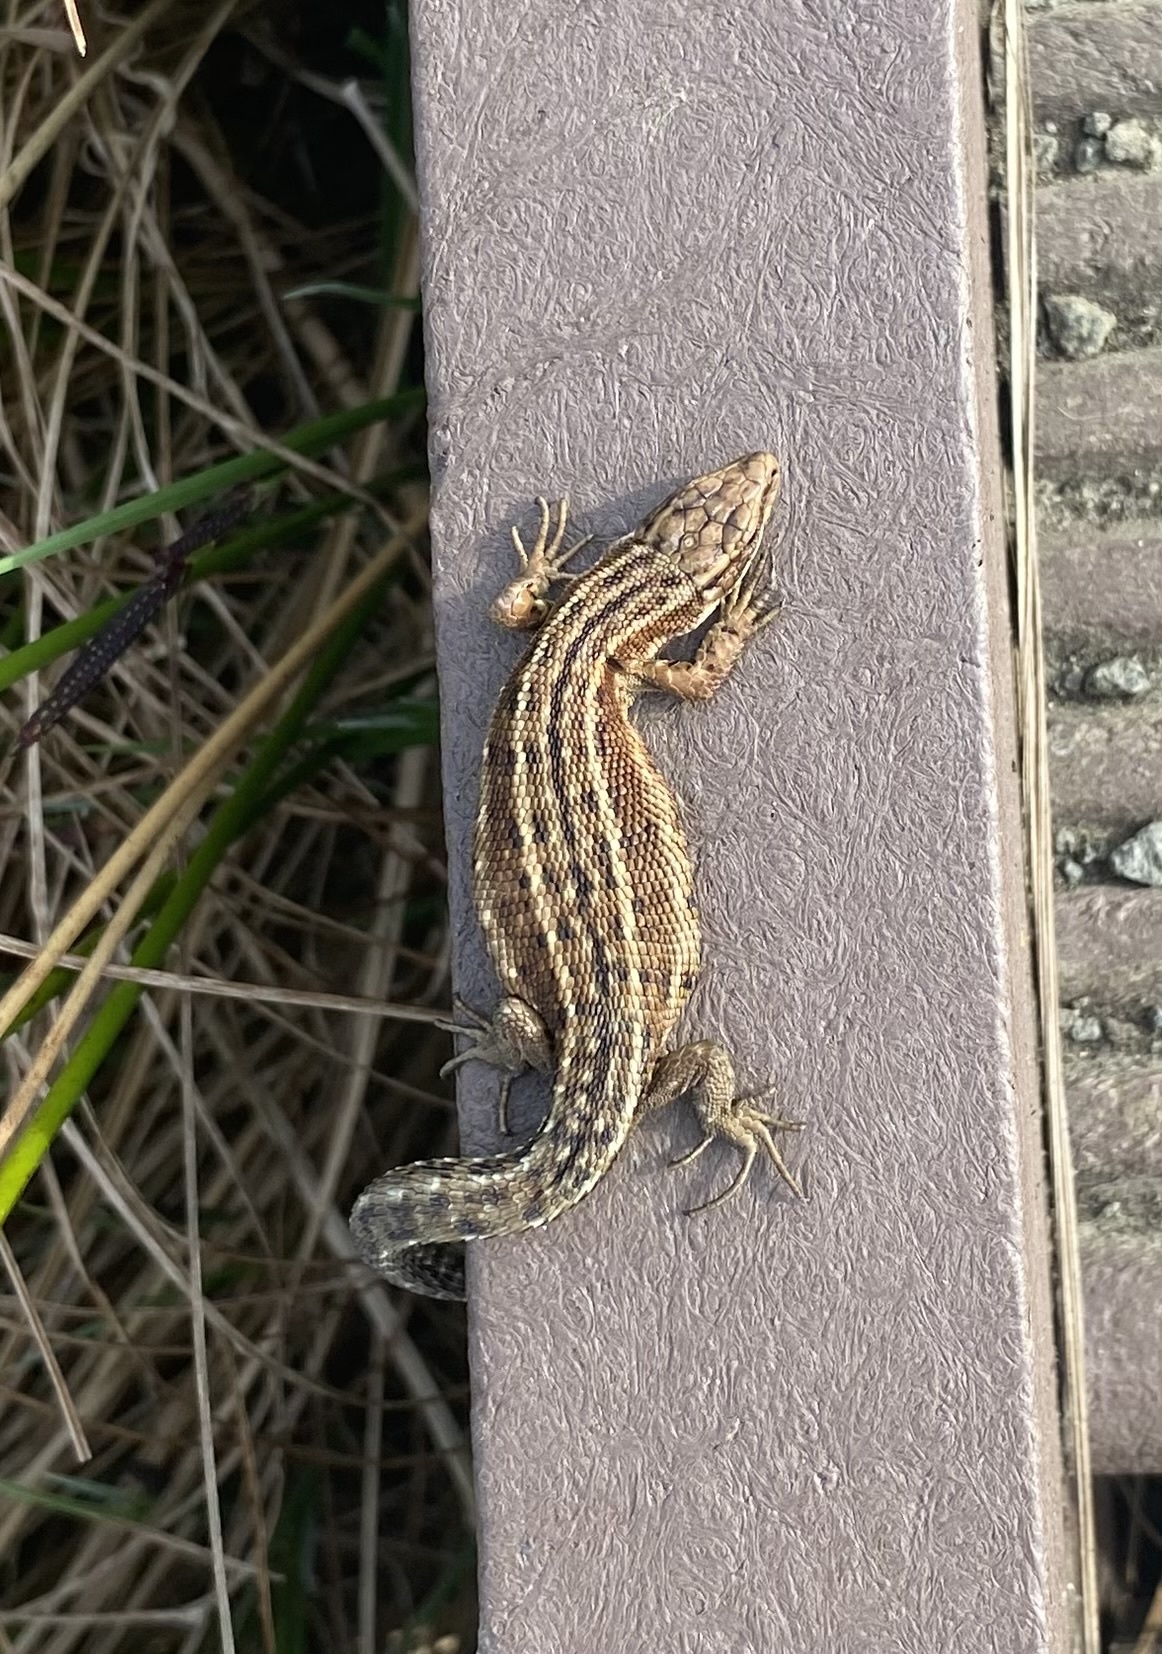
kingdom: Animalia
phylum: Chordata
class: Squamata
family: Lacertidae
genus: Zootoca
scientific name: Zootoca vivipara
